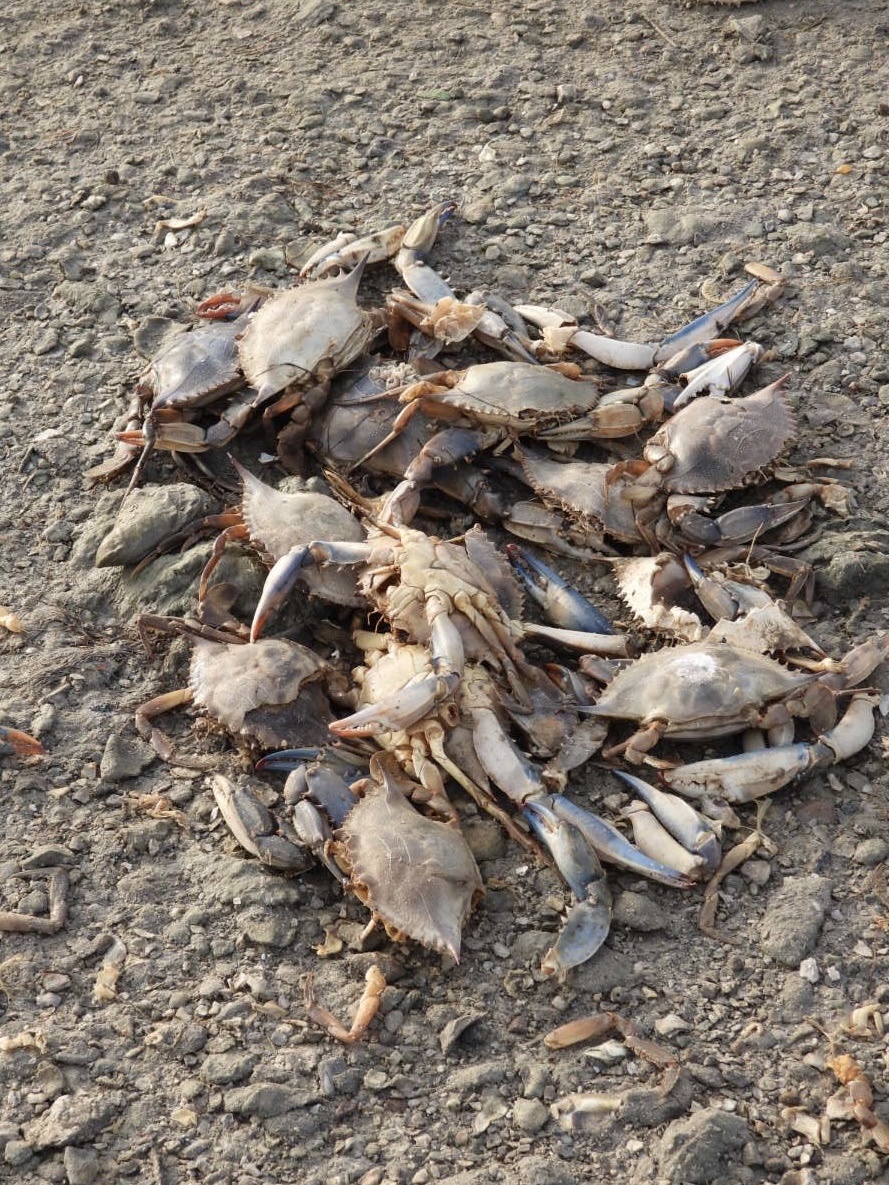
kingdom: Animalia
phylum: Arthropoda
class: Malacostraca
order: Decapoda
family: Portunidae
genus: Callinectes
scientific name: Callinectes sapidus
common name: Blue crab
